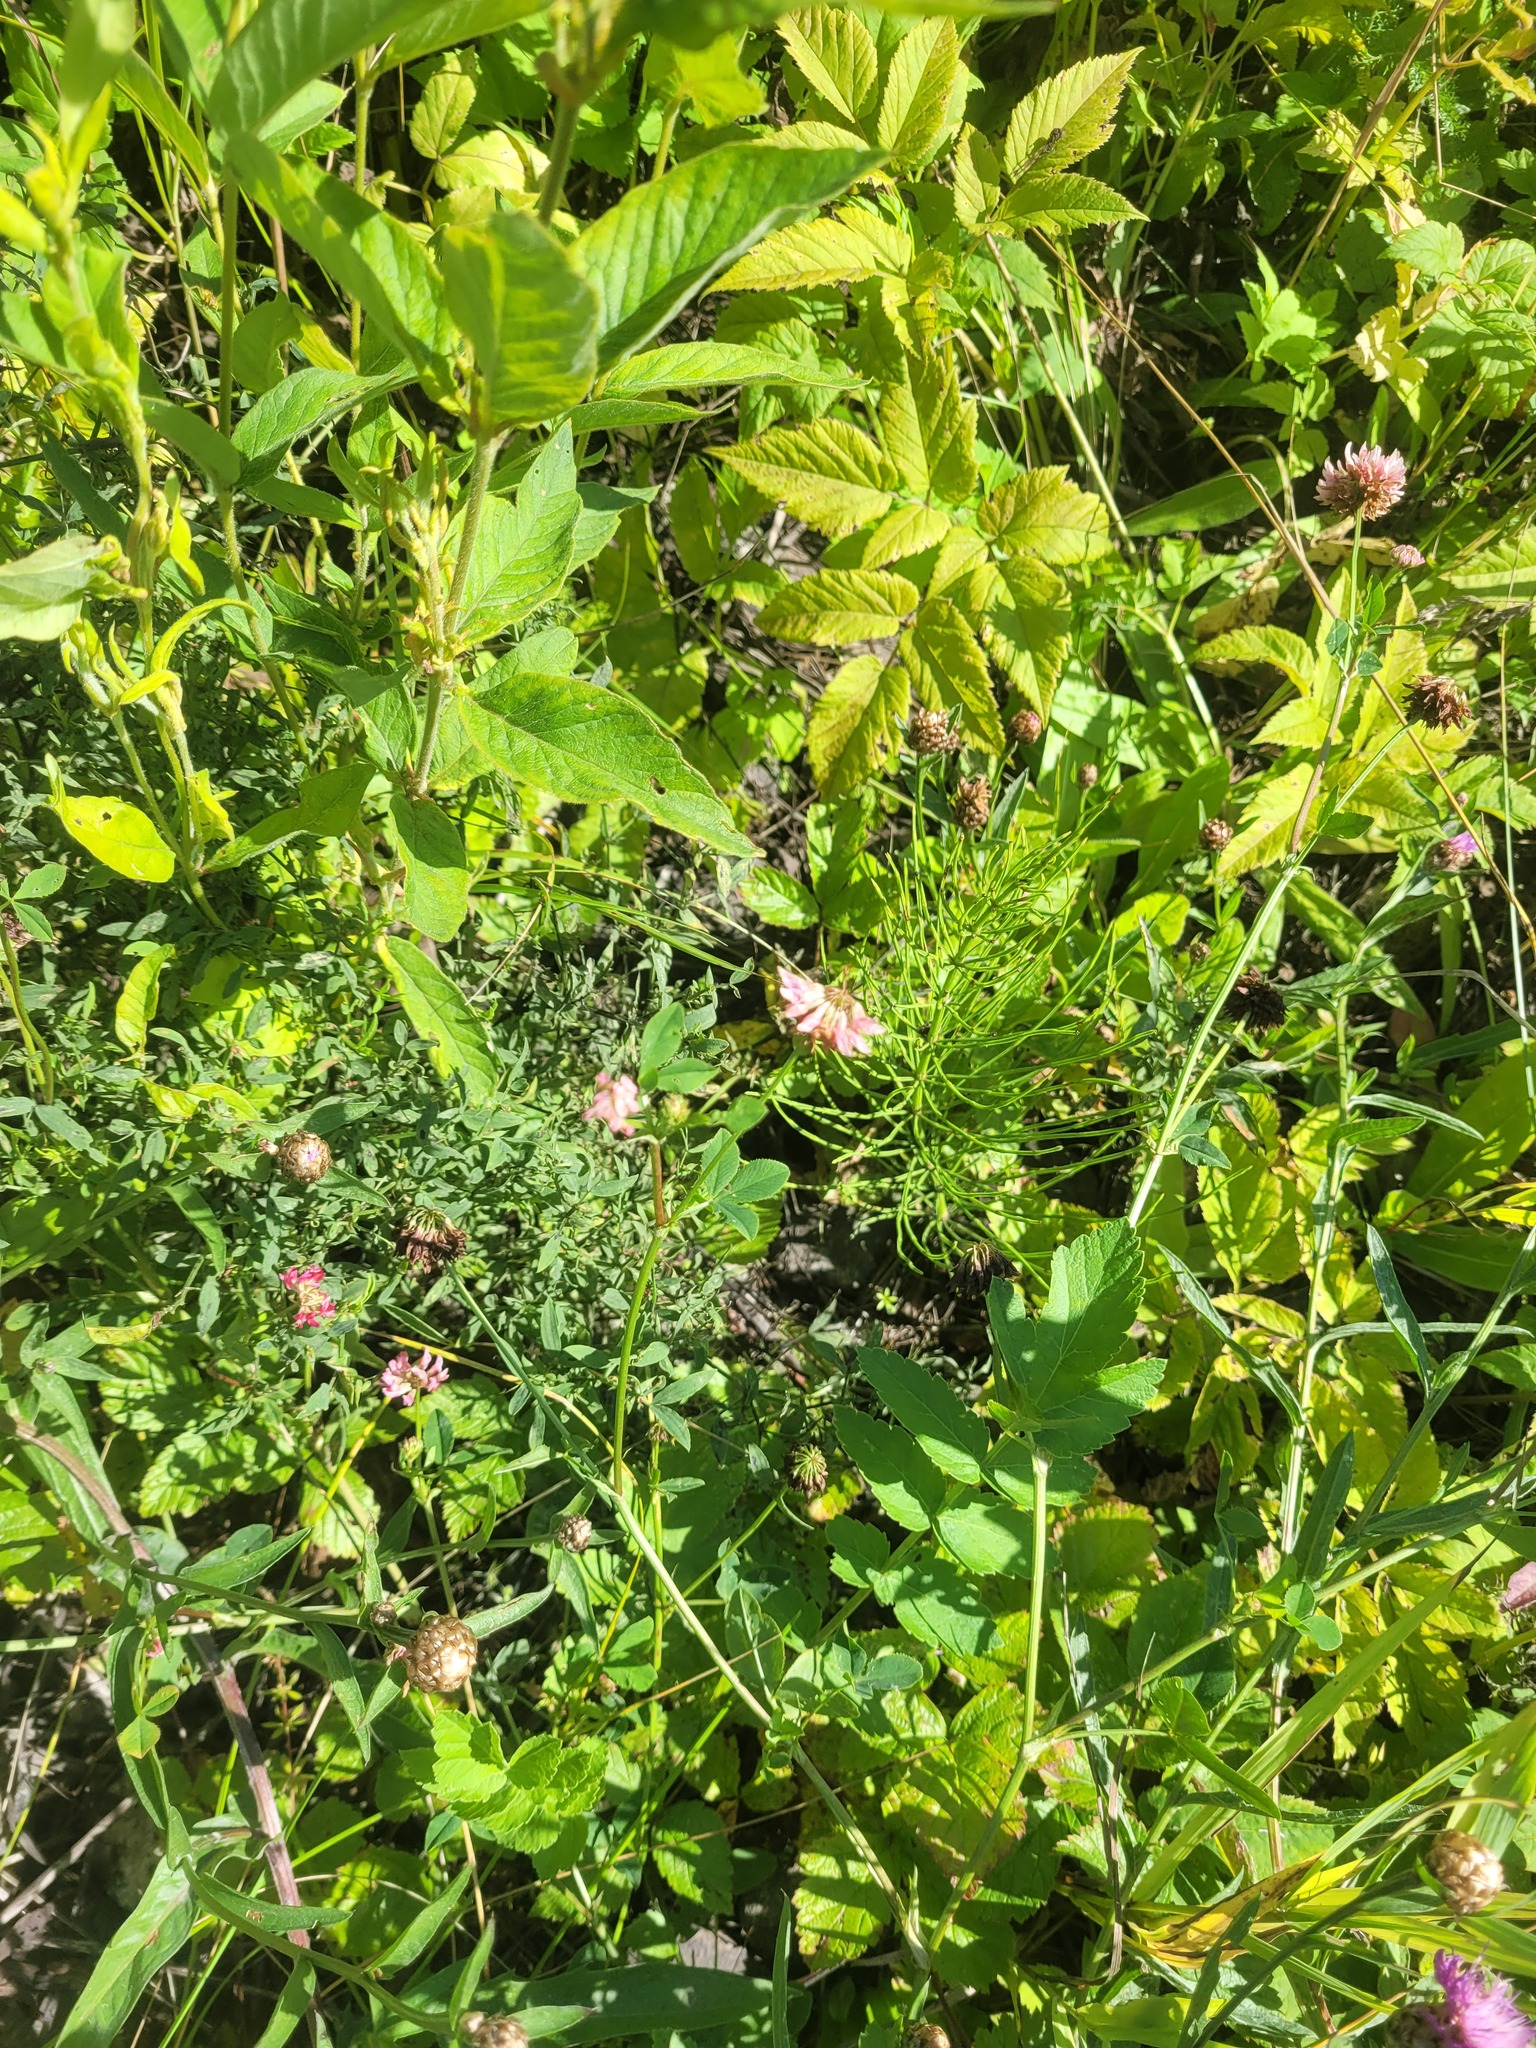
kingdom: Plantae
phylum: Tracheophyta
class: Magnoliopsida
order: Fabales
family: Fabaceae
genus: Trifolium
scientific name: Trifolium hybridum
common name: Alsike clover
